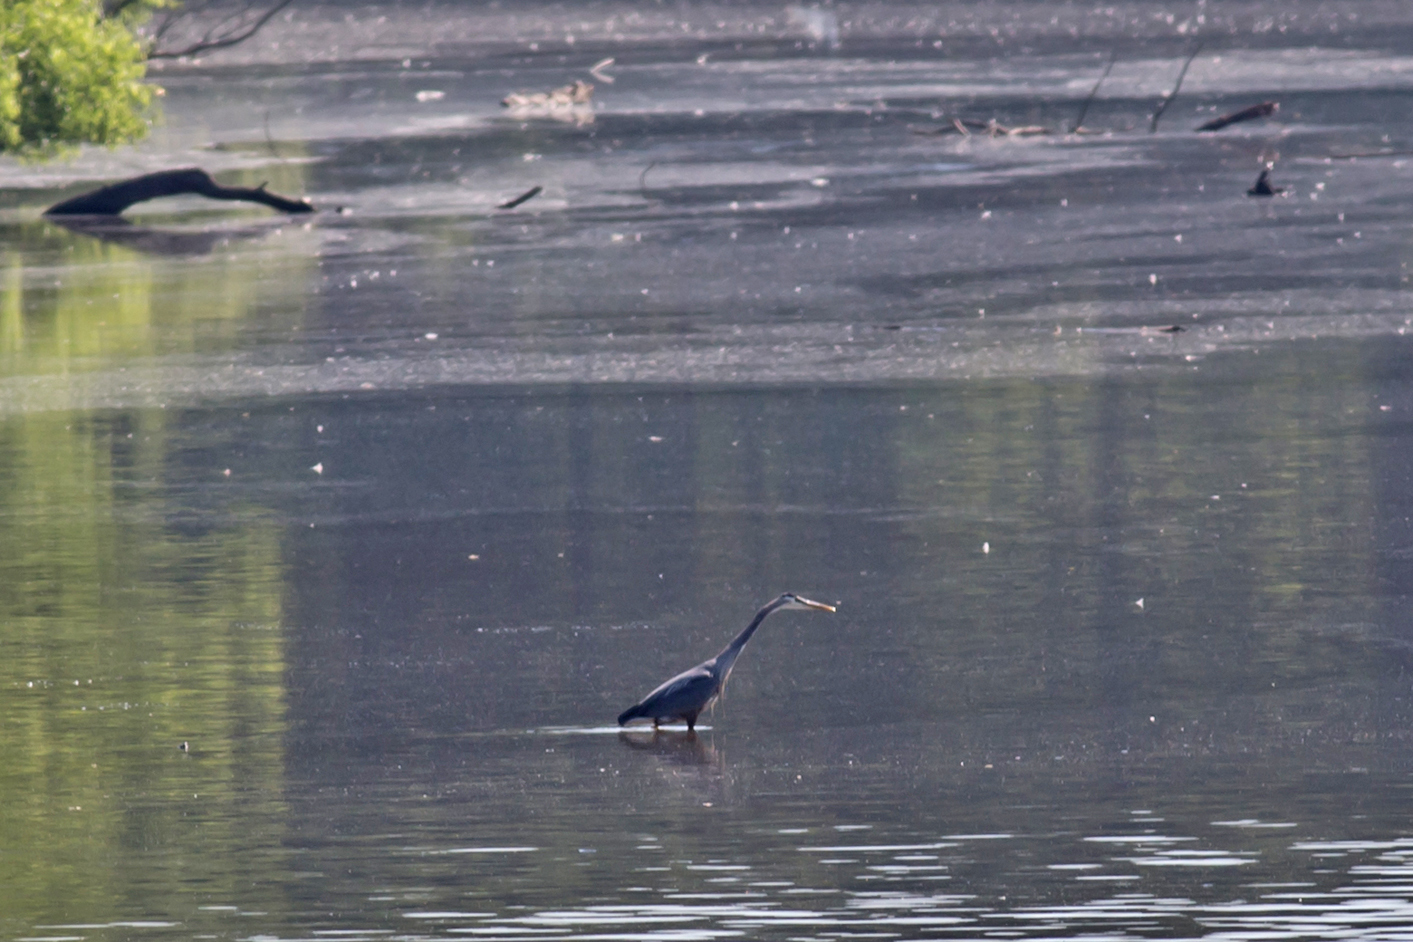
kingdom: Animalia
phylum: Chordata
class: Aves
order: Pelecaniformes
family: Ardeidae
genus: Ardea
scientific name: Ardea herodias
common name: Great blue heron
